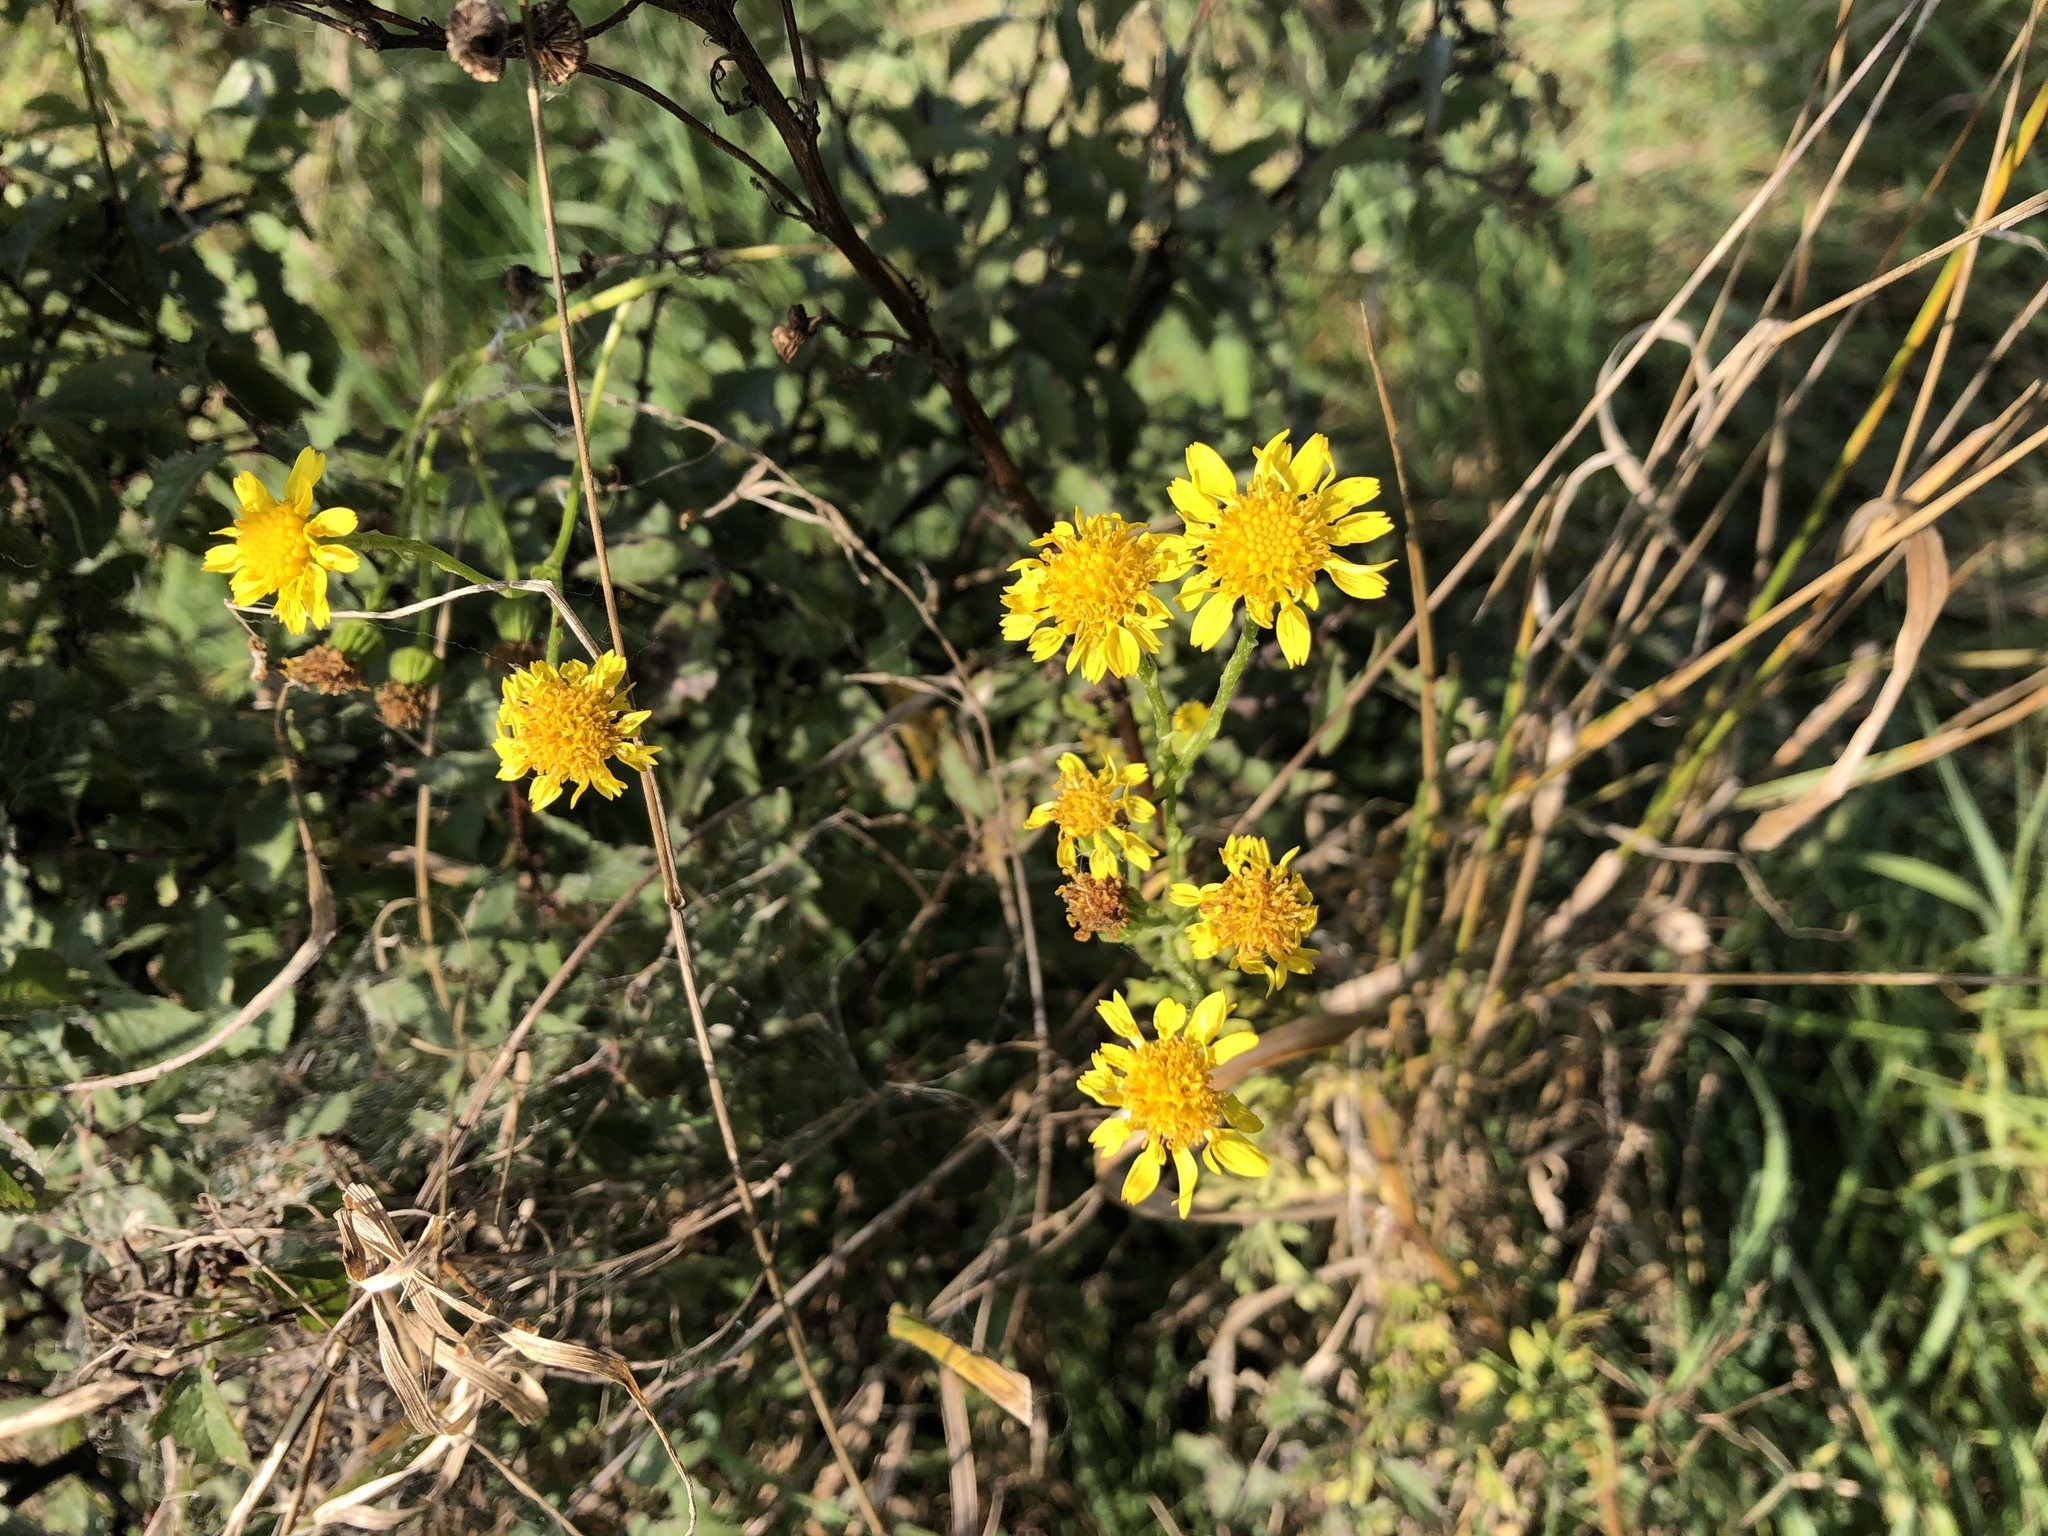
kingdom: Plantae
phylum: Tracheophyta
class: Magnoliopsida
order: Asterales
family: Asteraceae
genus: Jacobaea
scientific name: Jacobaea vulgaris
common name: Stinking willie
